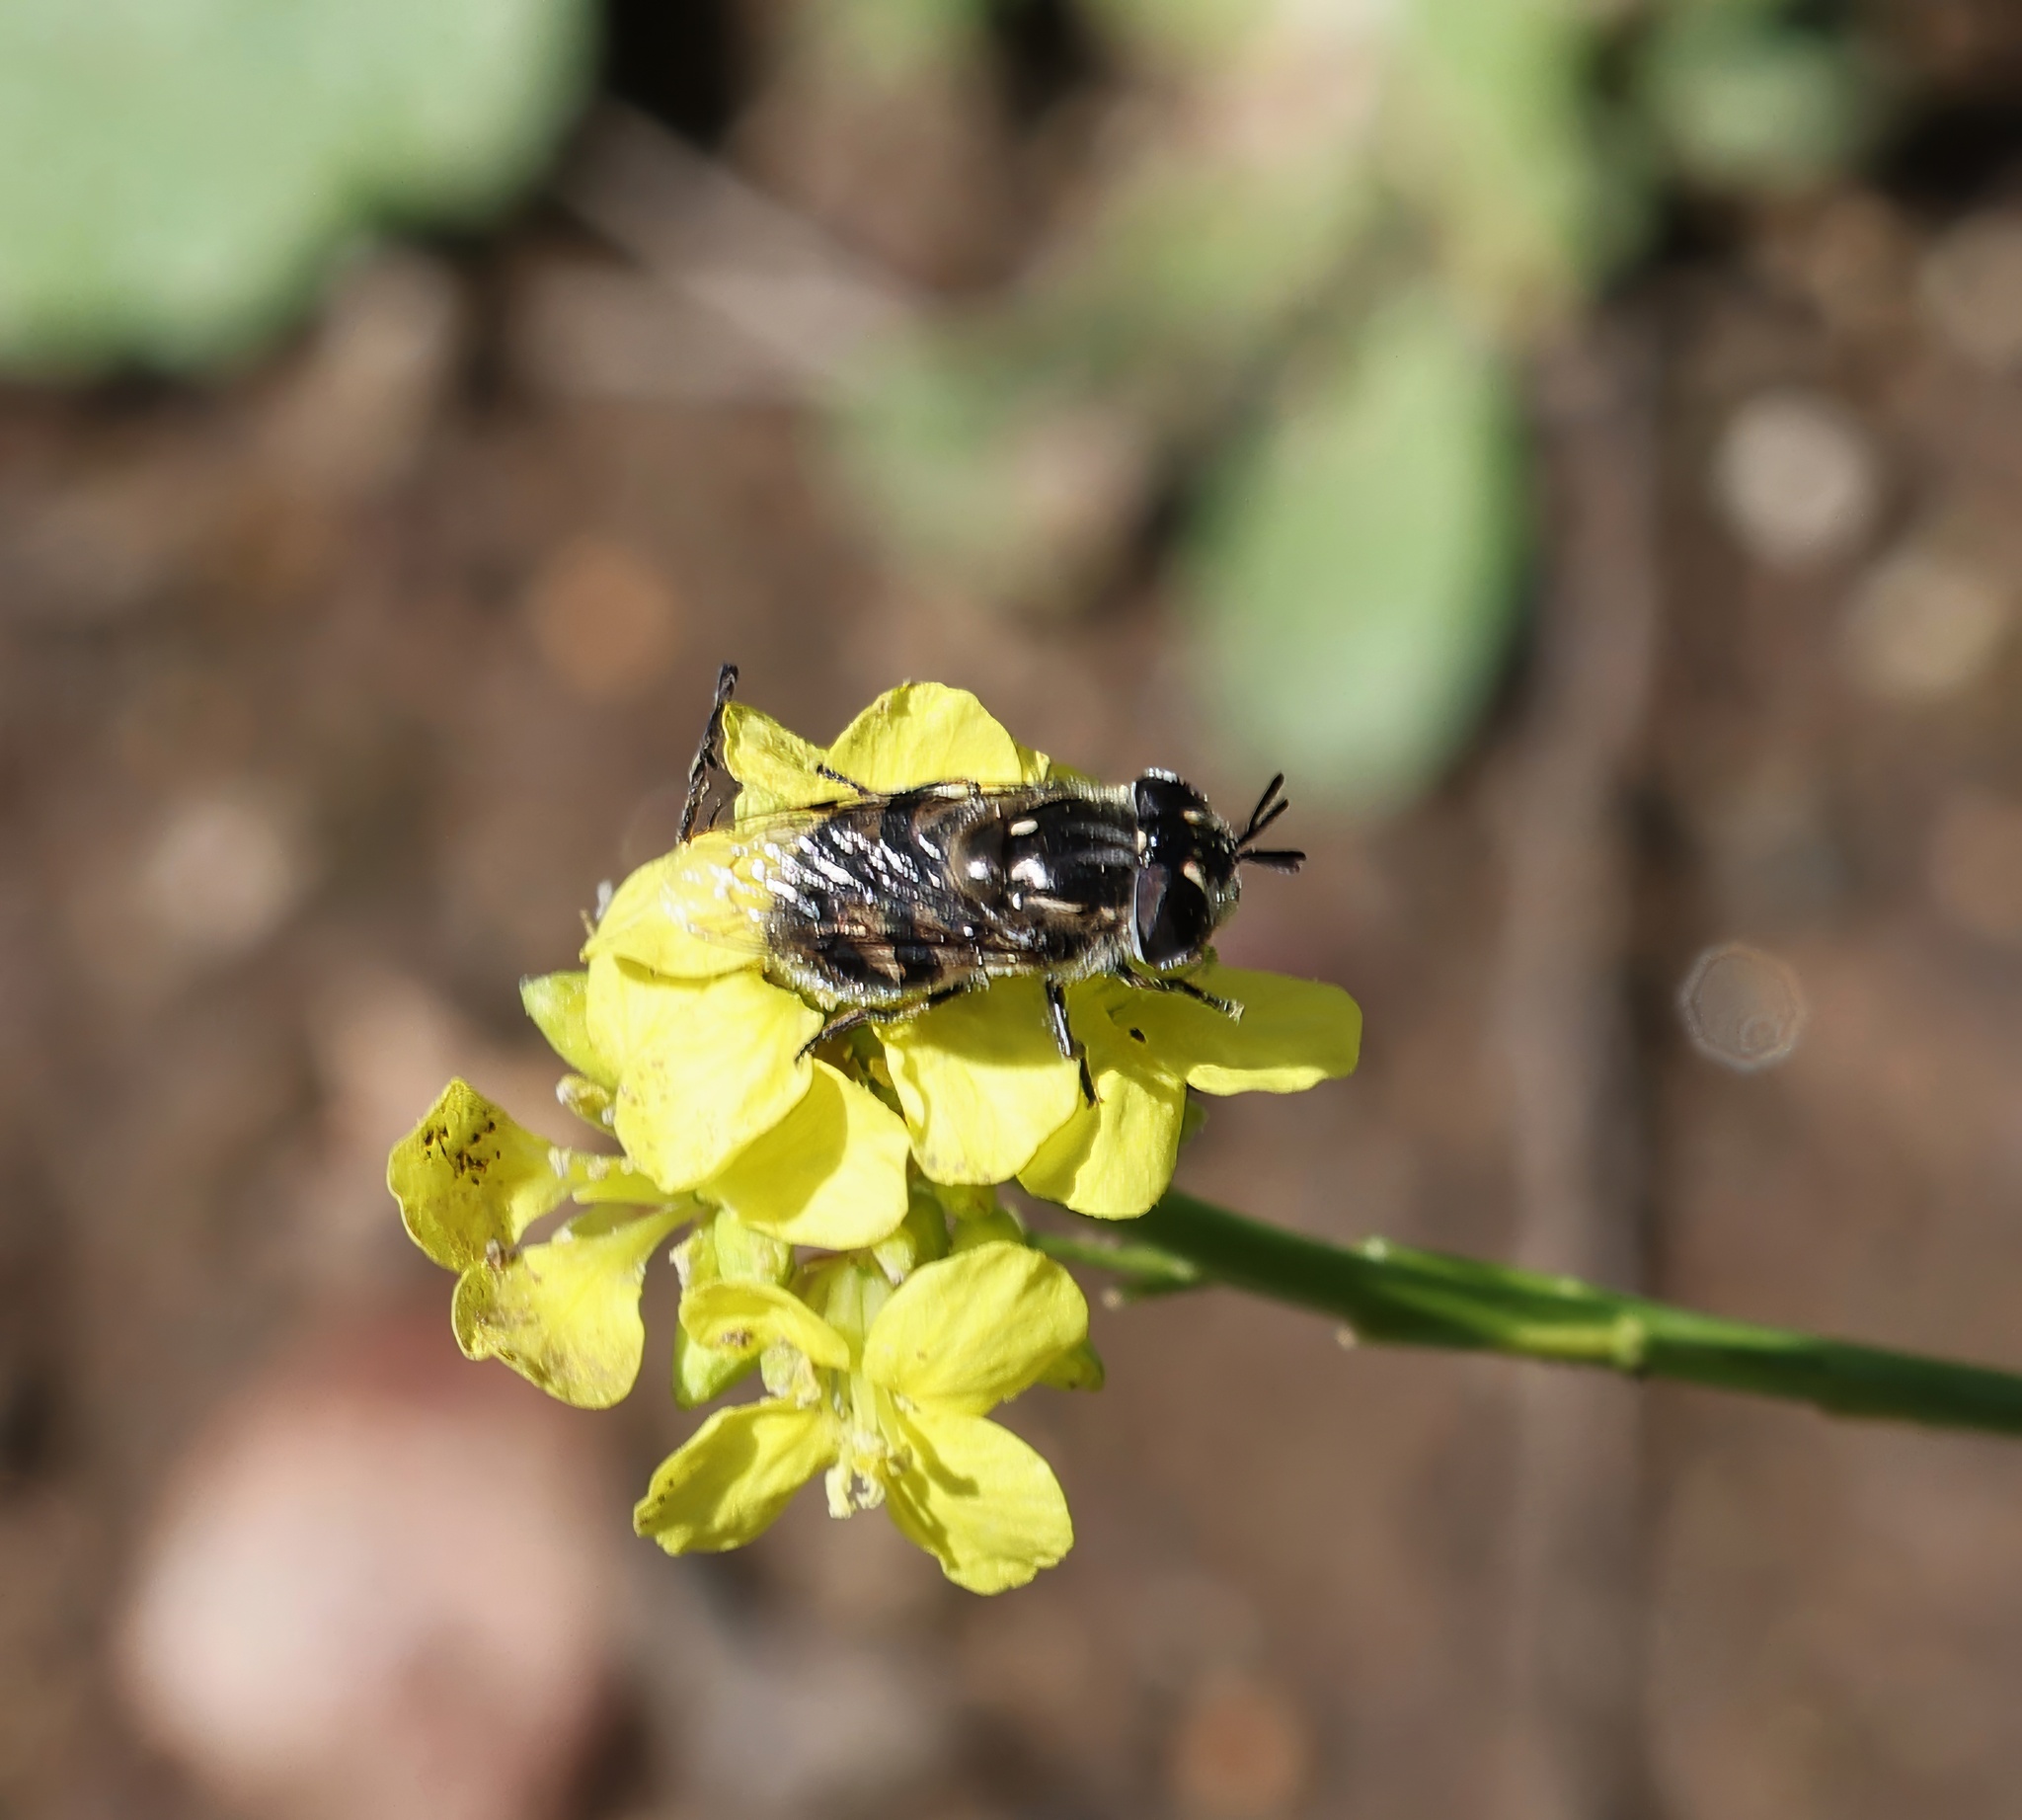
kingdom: Animalia
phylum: Arthropoda
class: Insecta
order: Diptera
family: Syrphidae
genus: Copestylum
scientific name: Copestylum marginatum
